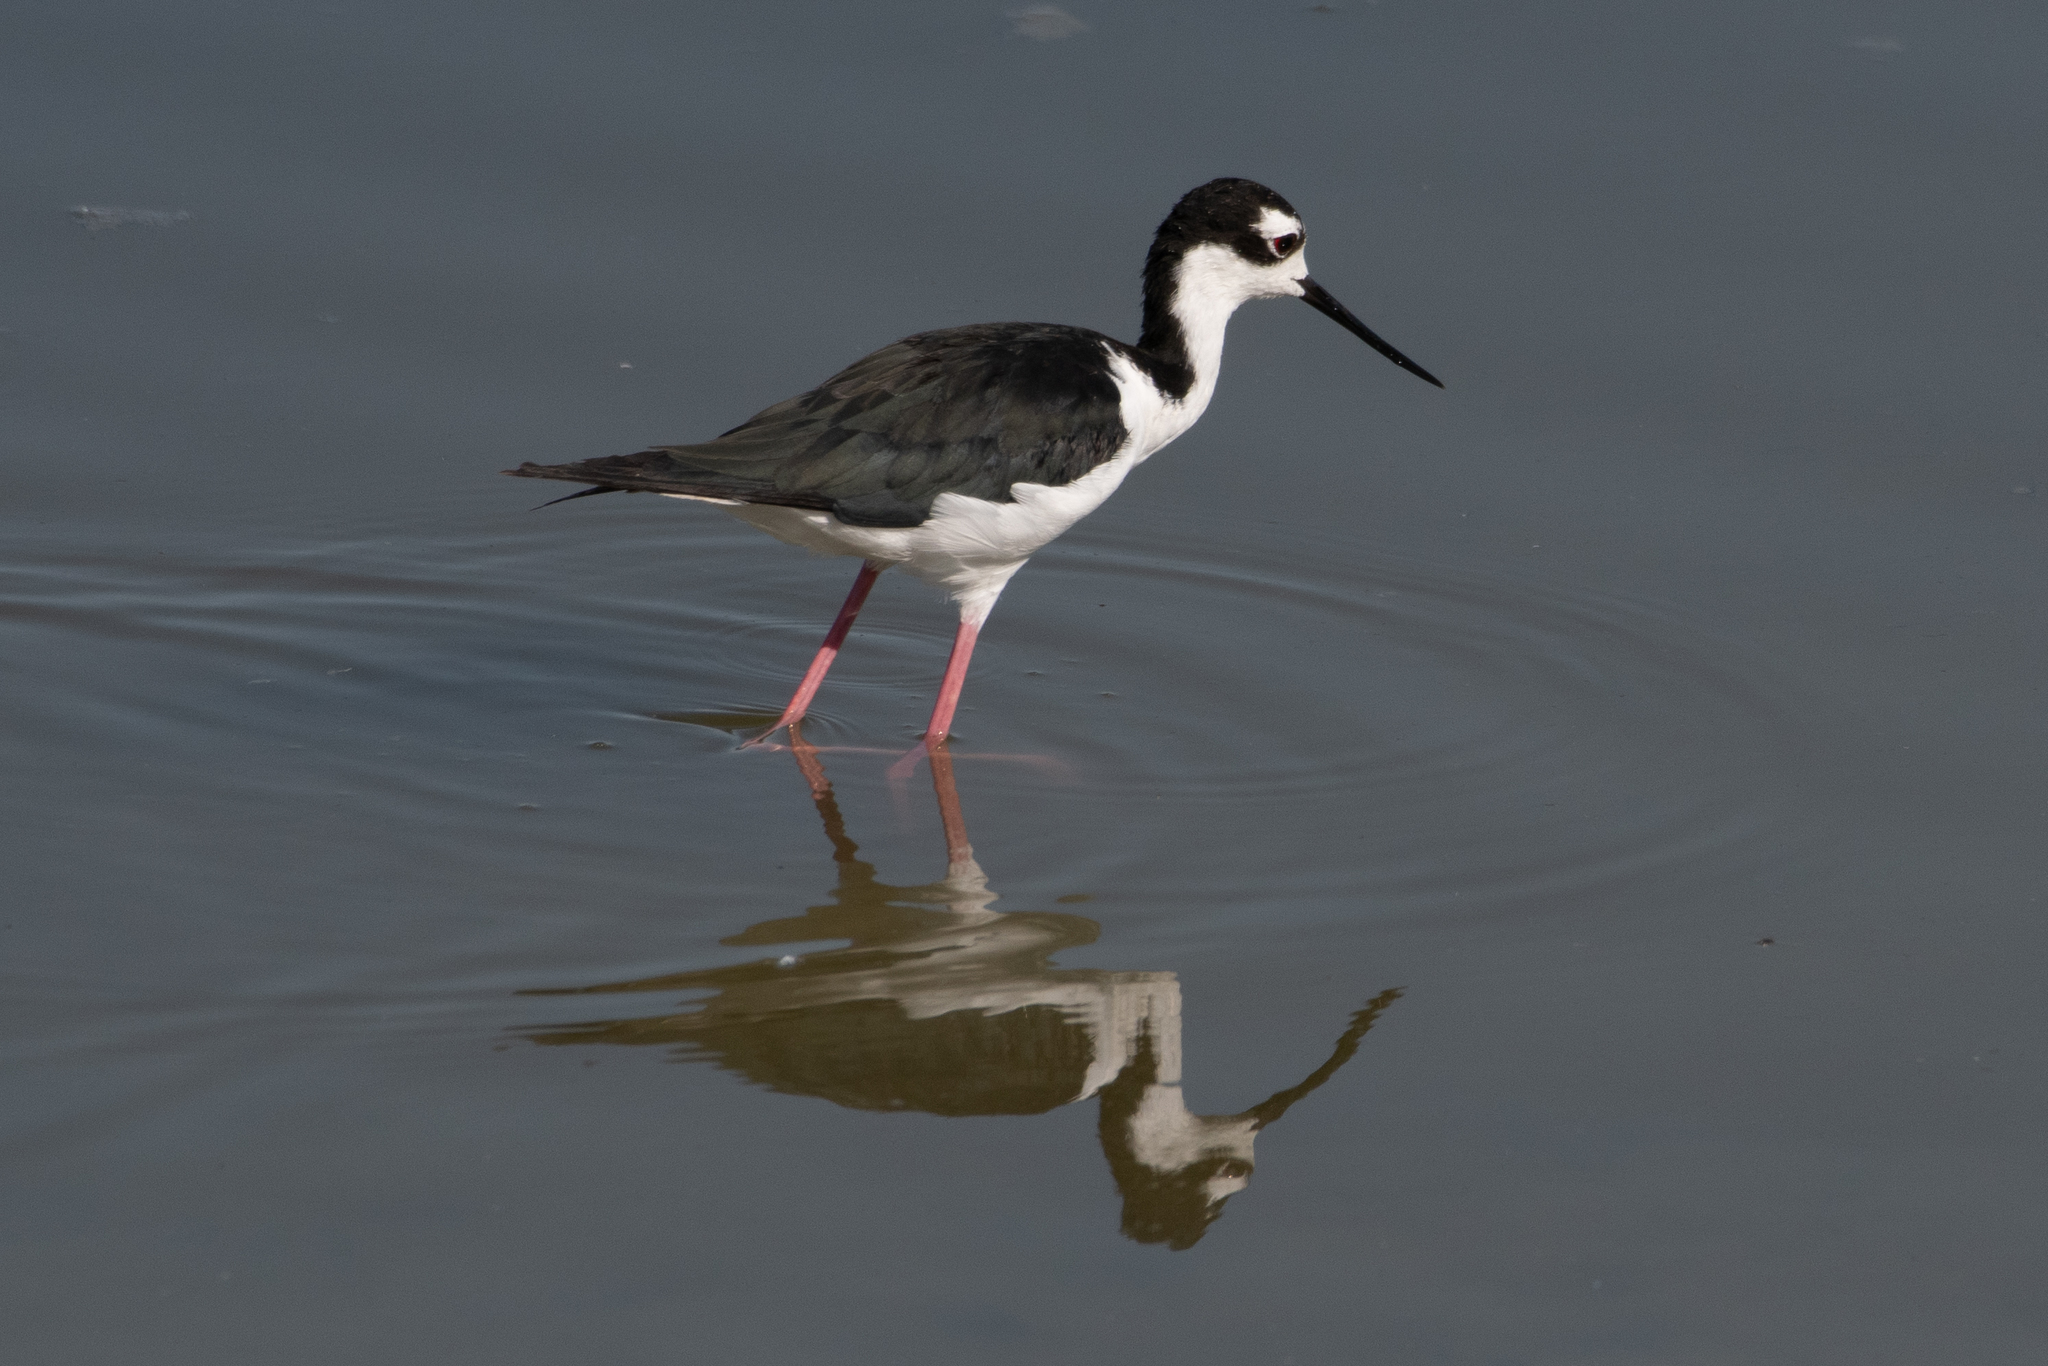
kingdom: Animalia
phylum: Chordata
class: Aves
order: Charadriiformes
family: Recurvirostridae
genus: Himantopus
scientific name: Himantopus mexicanus
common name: Black-necked stilt
